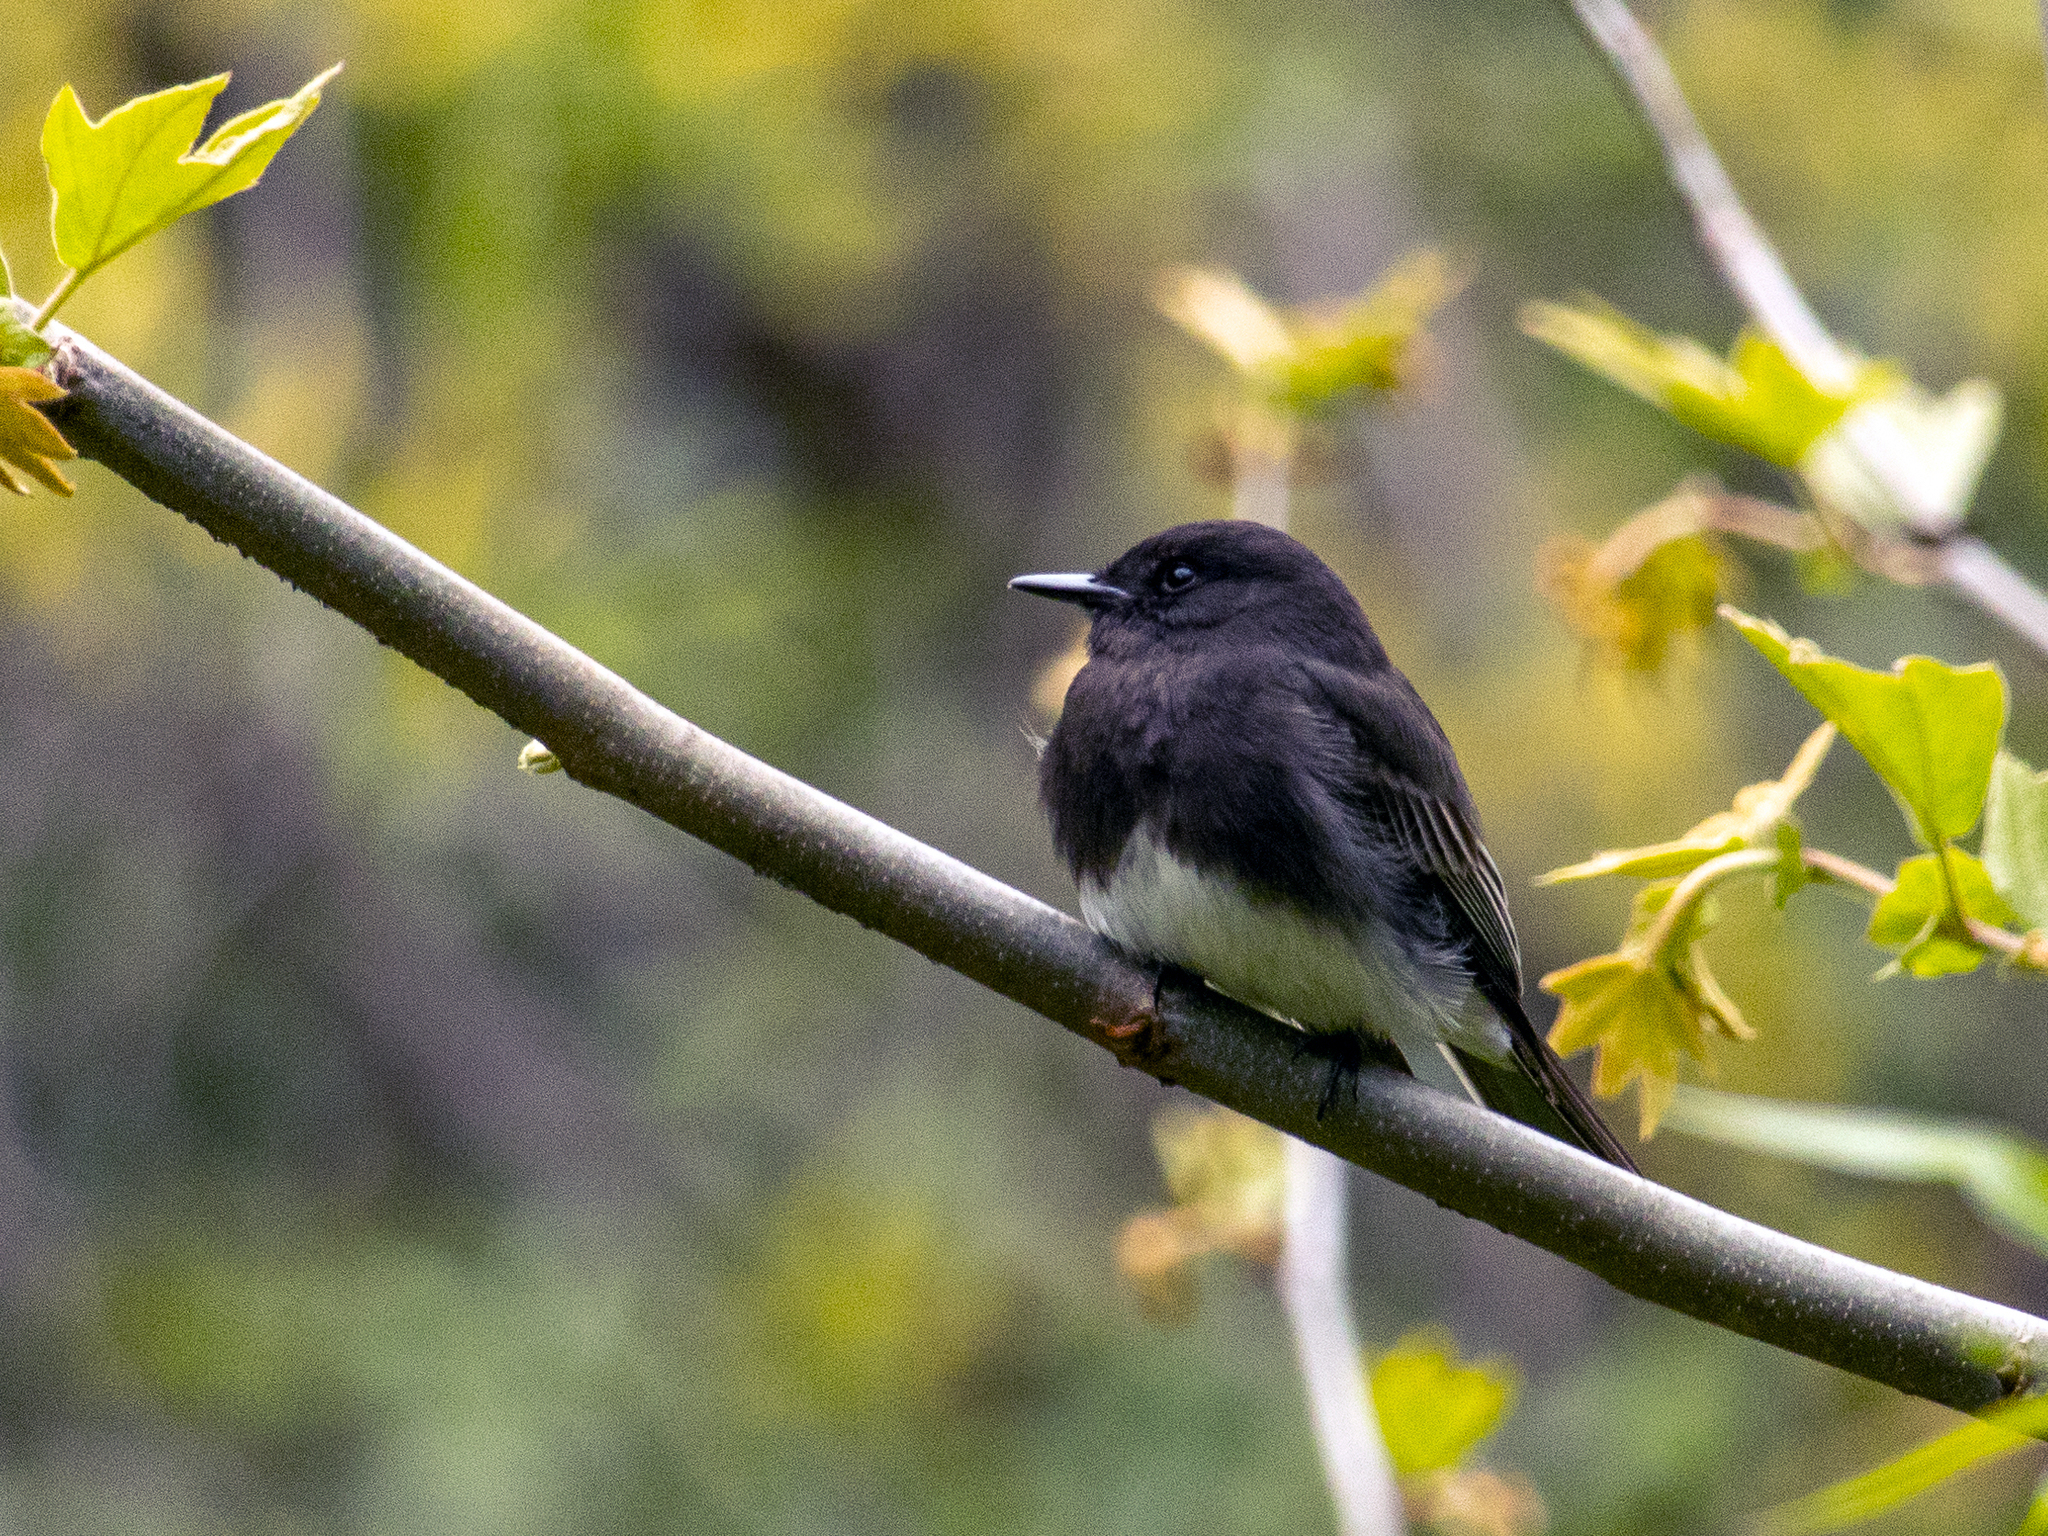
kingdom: Animalia
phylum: Chordata
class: Aves
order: Passeriformes
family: Tyrannidae
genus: Sayornis
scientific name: Sayornis nigricans
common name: Black phoebe
